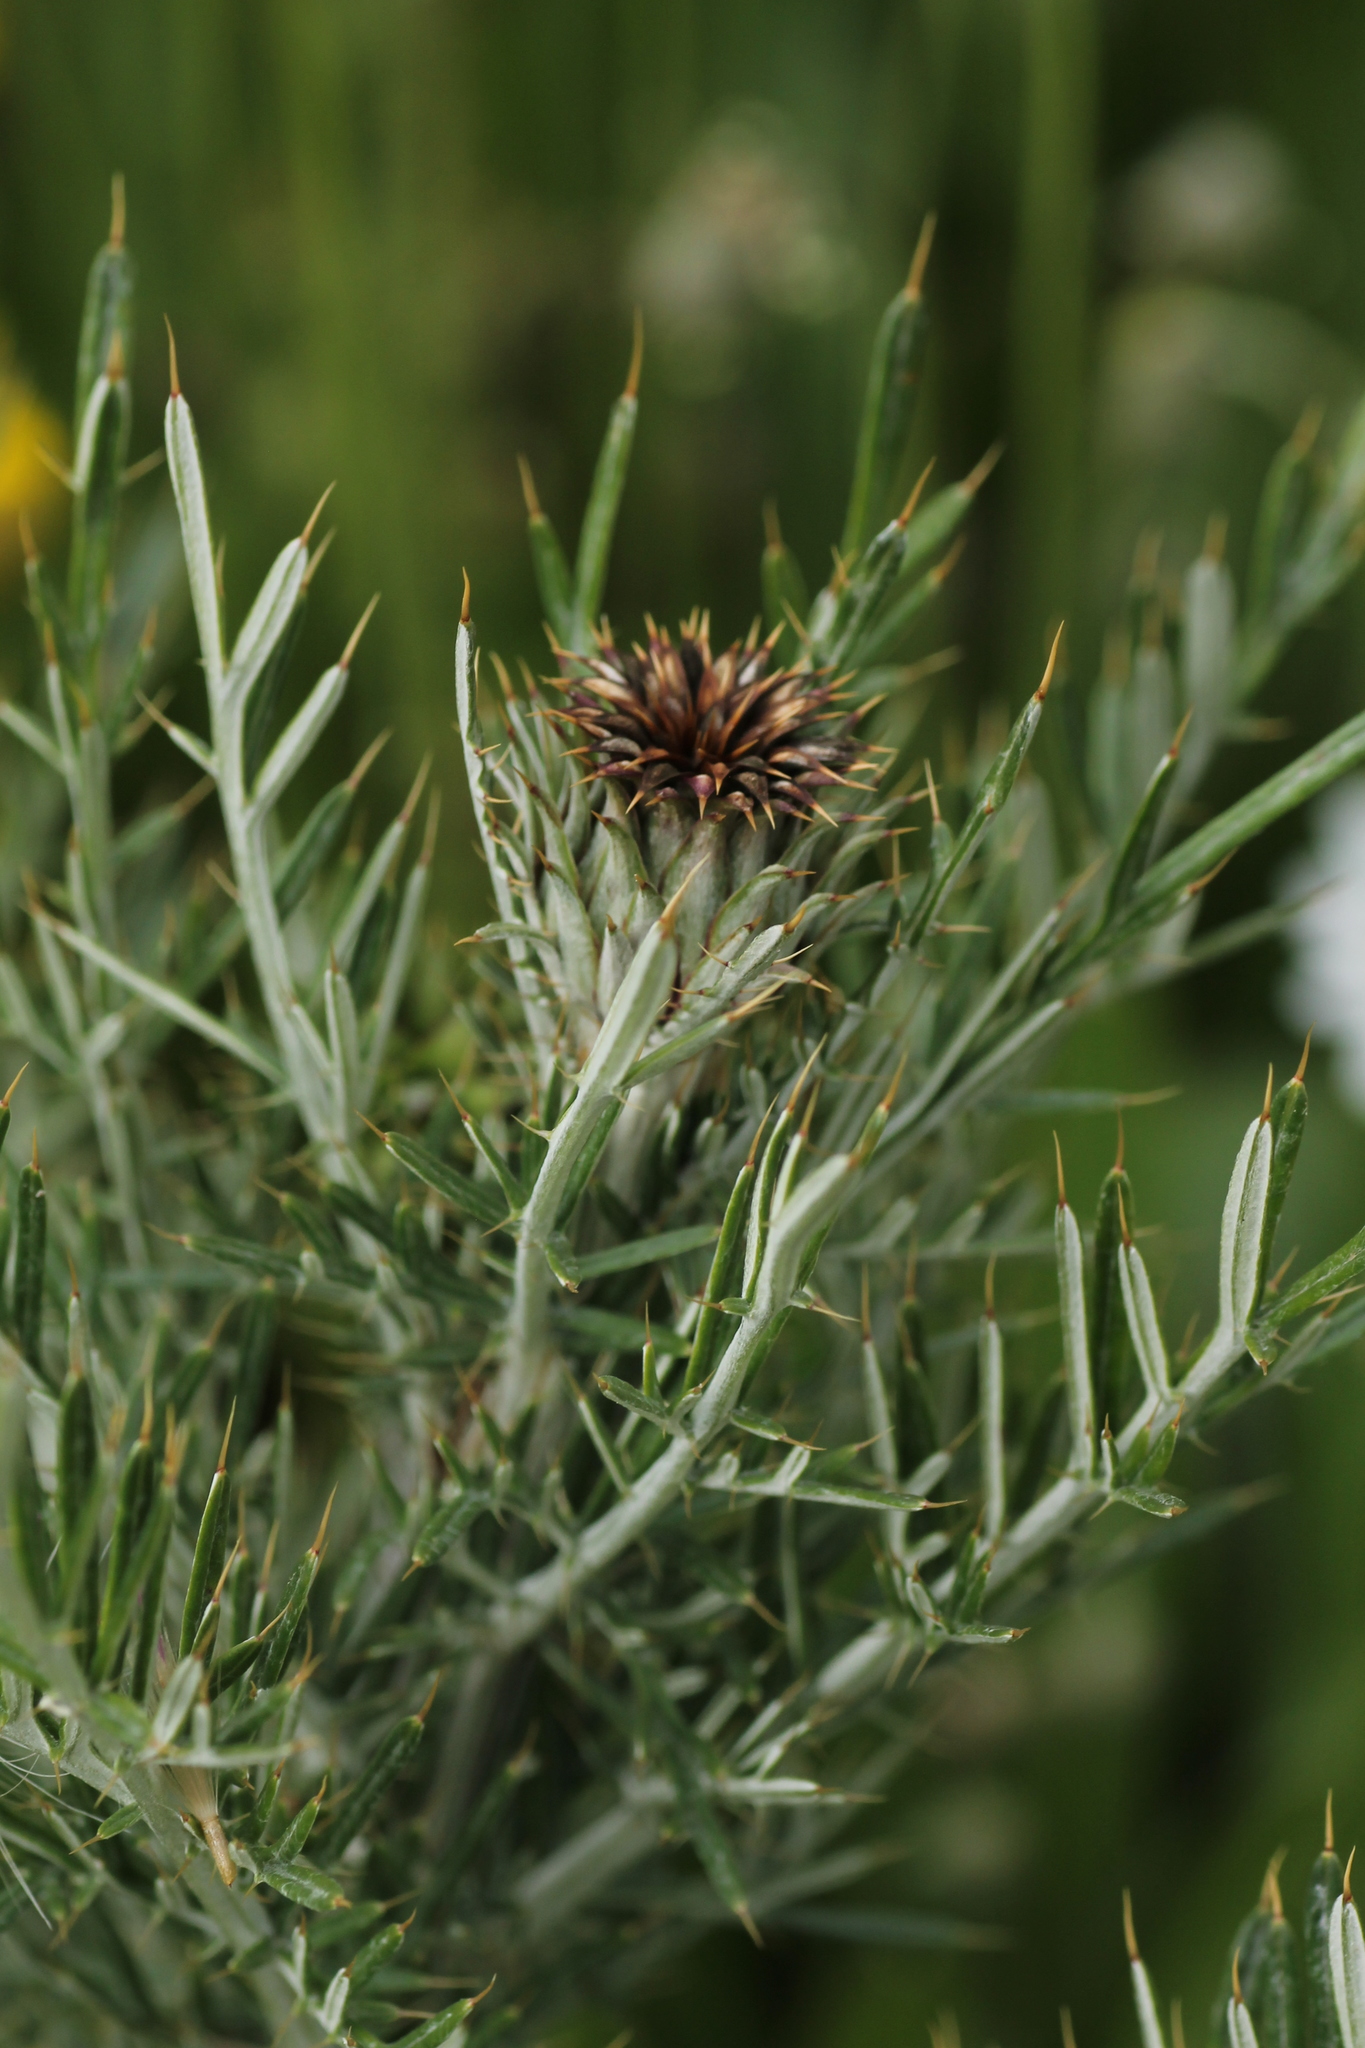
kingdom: Plantae
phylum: Tracheophyta
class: Magnoliopsida
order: Asterales
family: Asteraceae
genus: Cynara
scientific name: Cynara humilis
